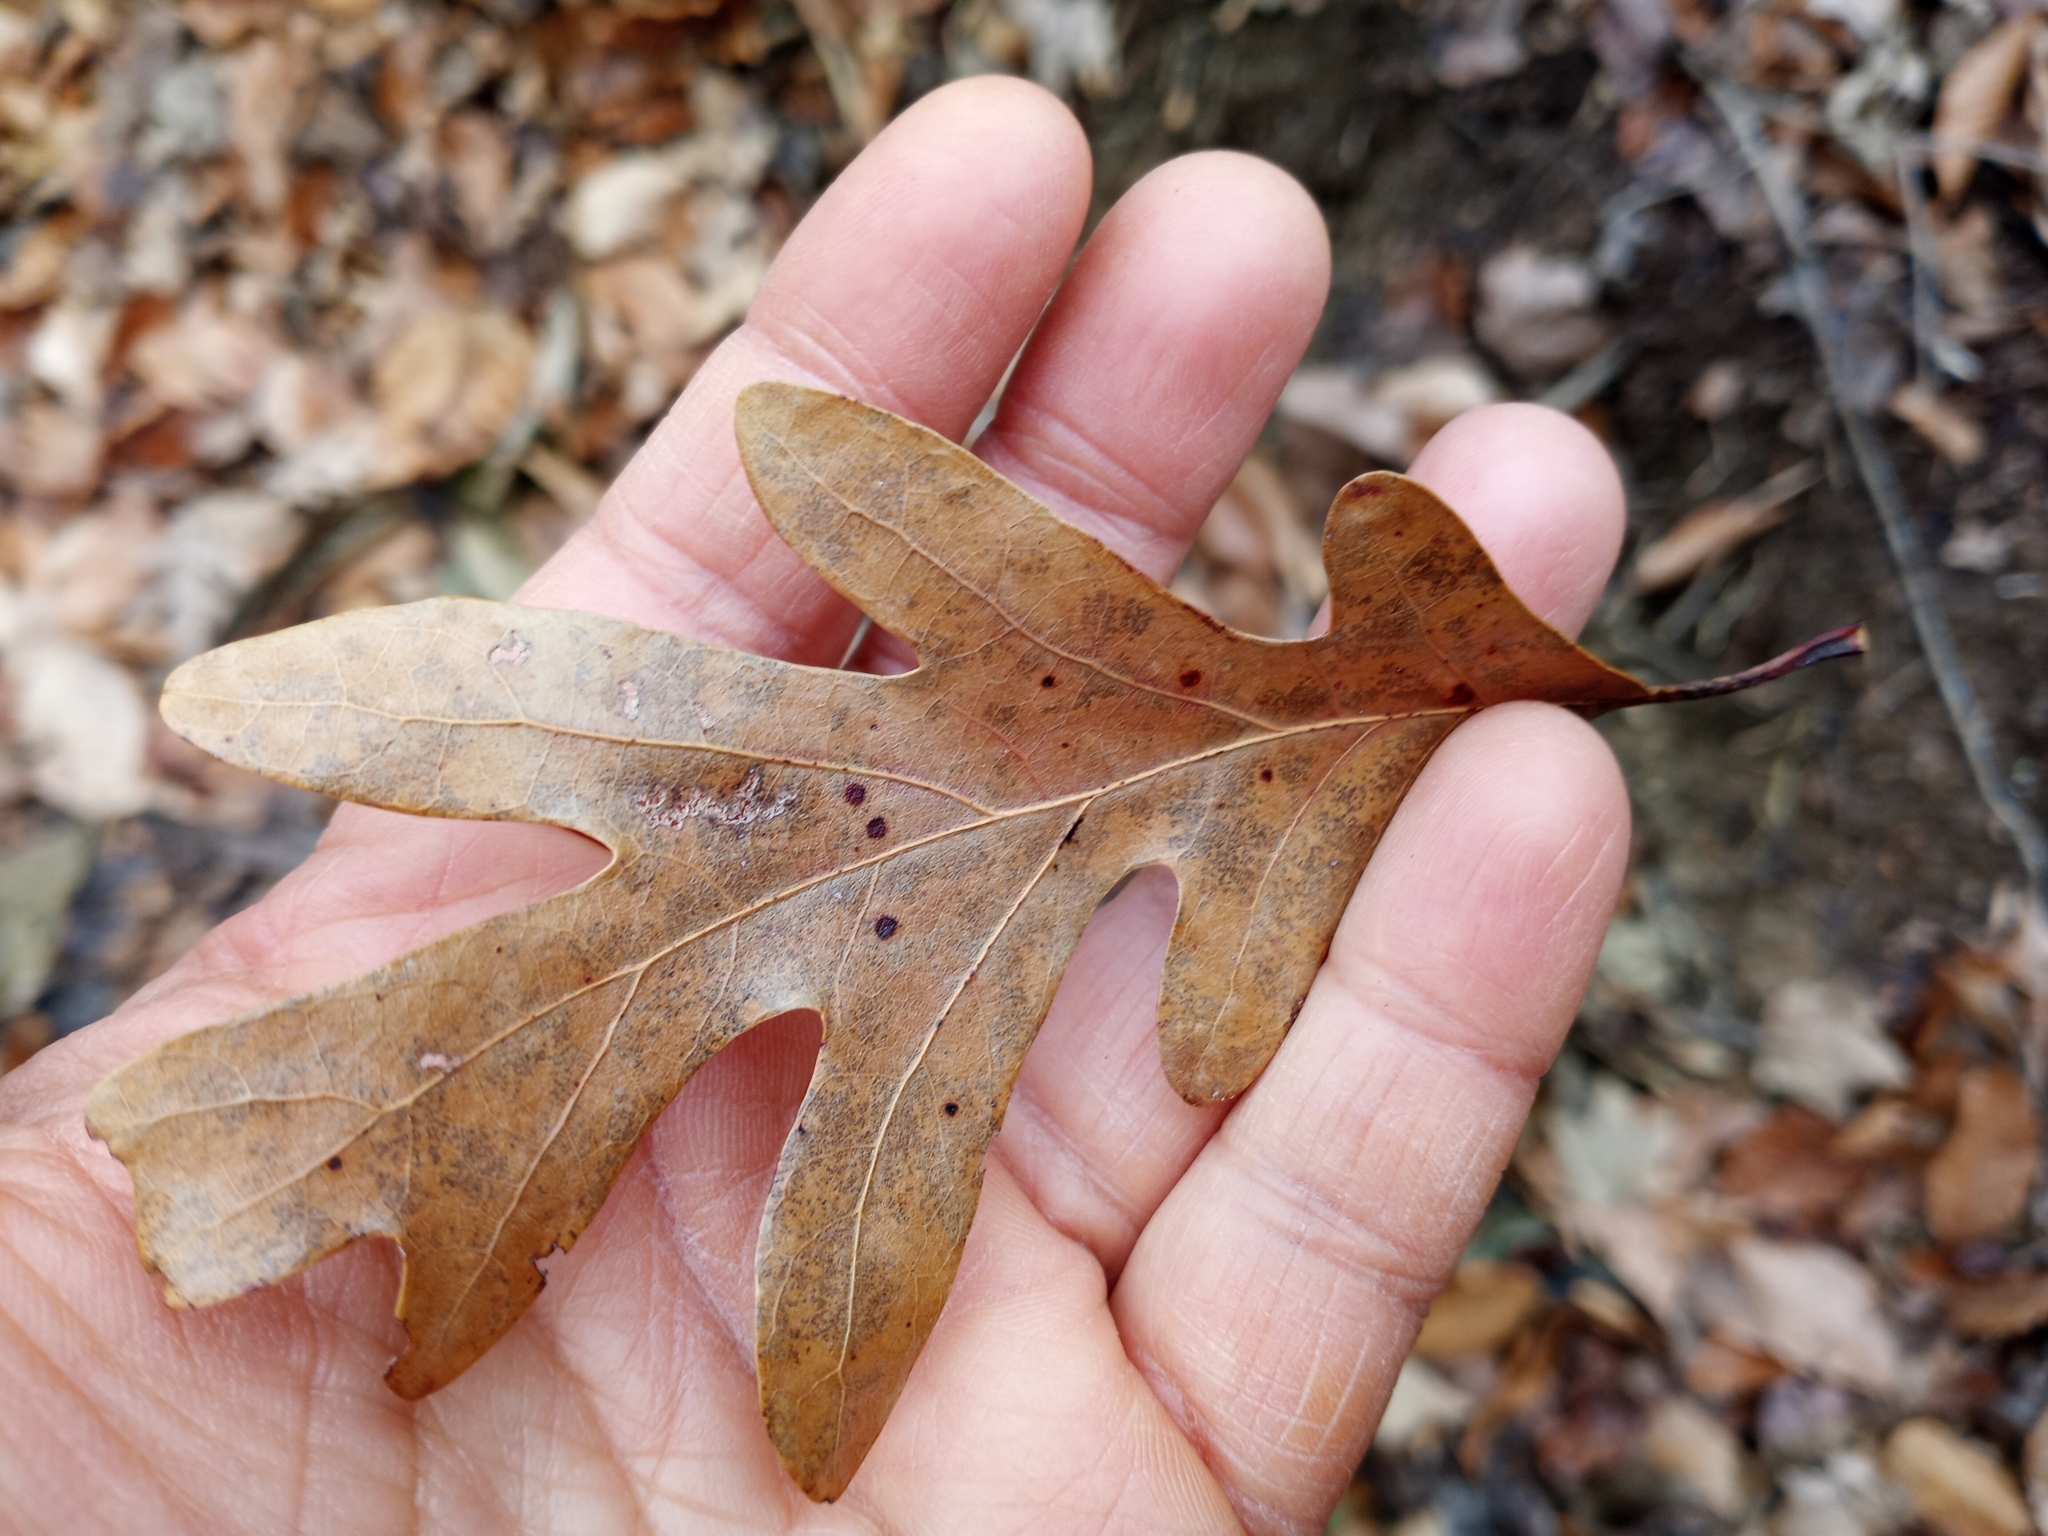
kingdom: Plantae
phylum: Tracheophyta
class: Magnoliopsida
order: Fagales
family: Fagaceae
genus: Quercus
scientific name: Quercus alba
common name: White oak
